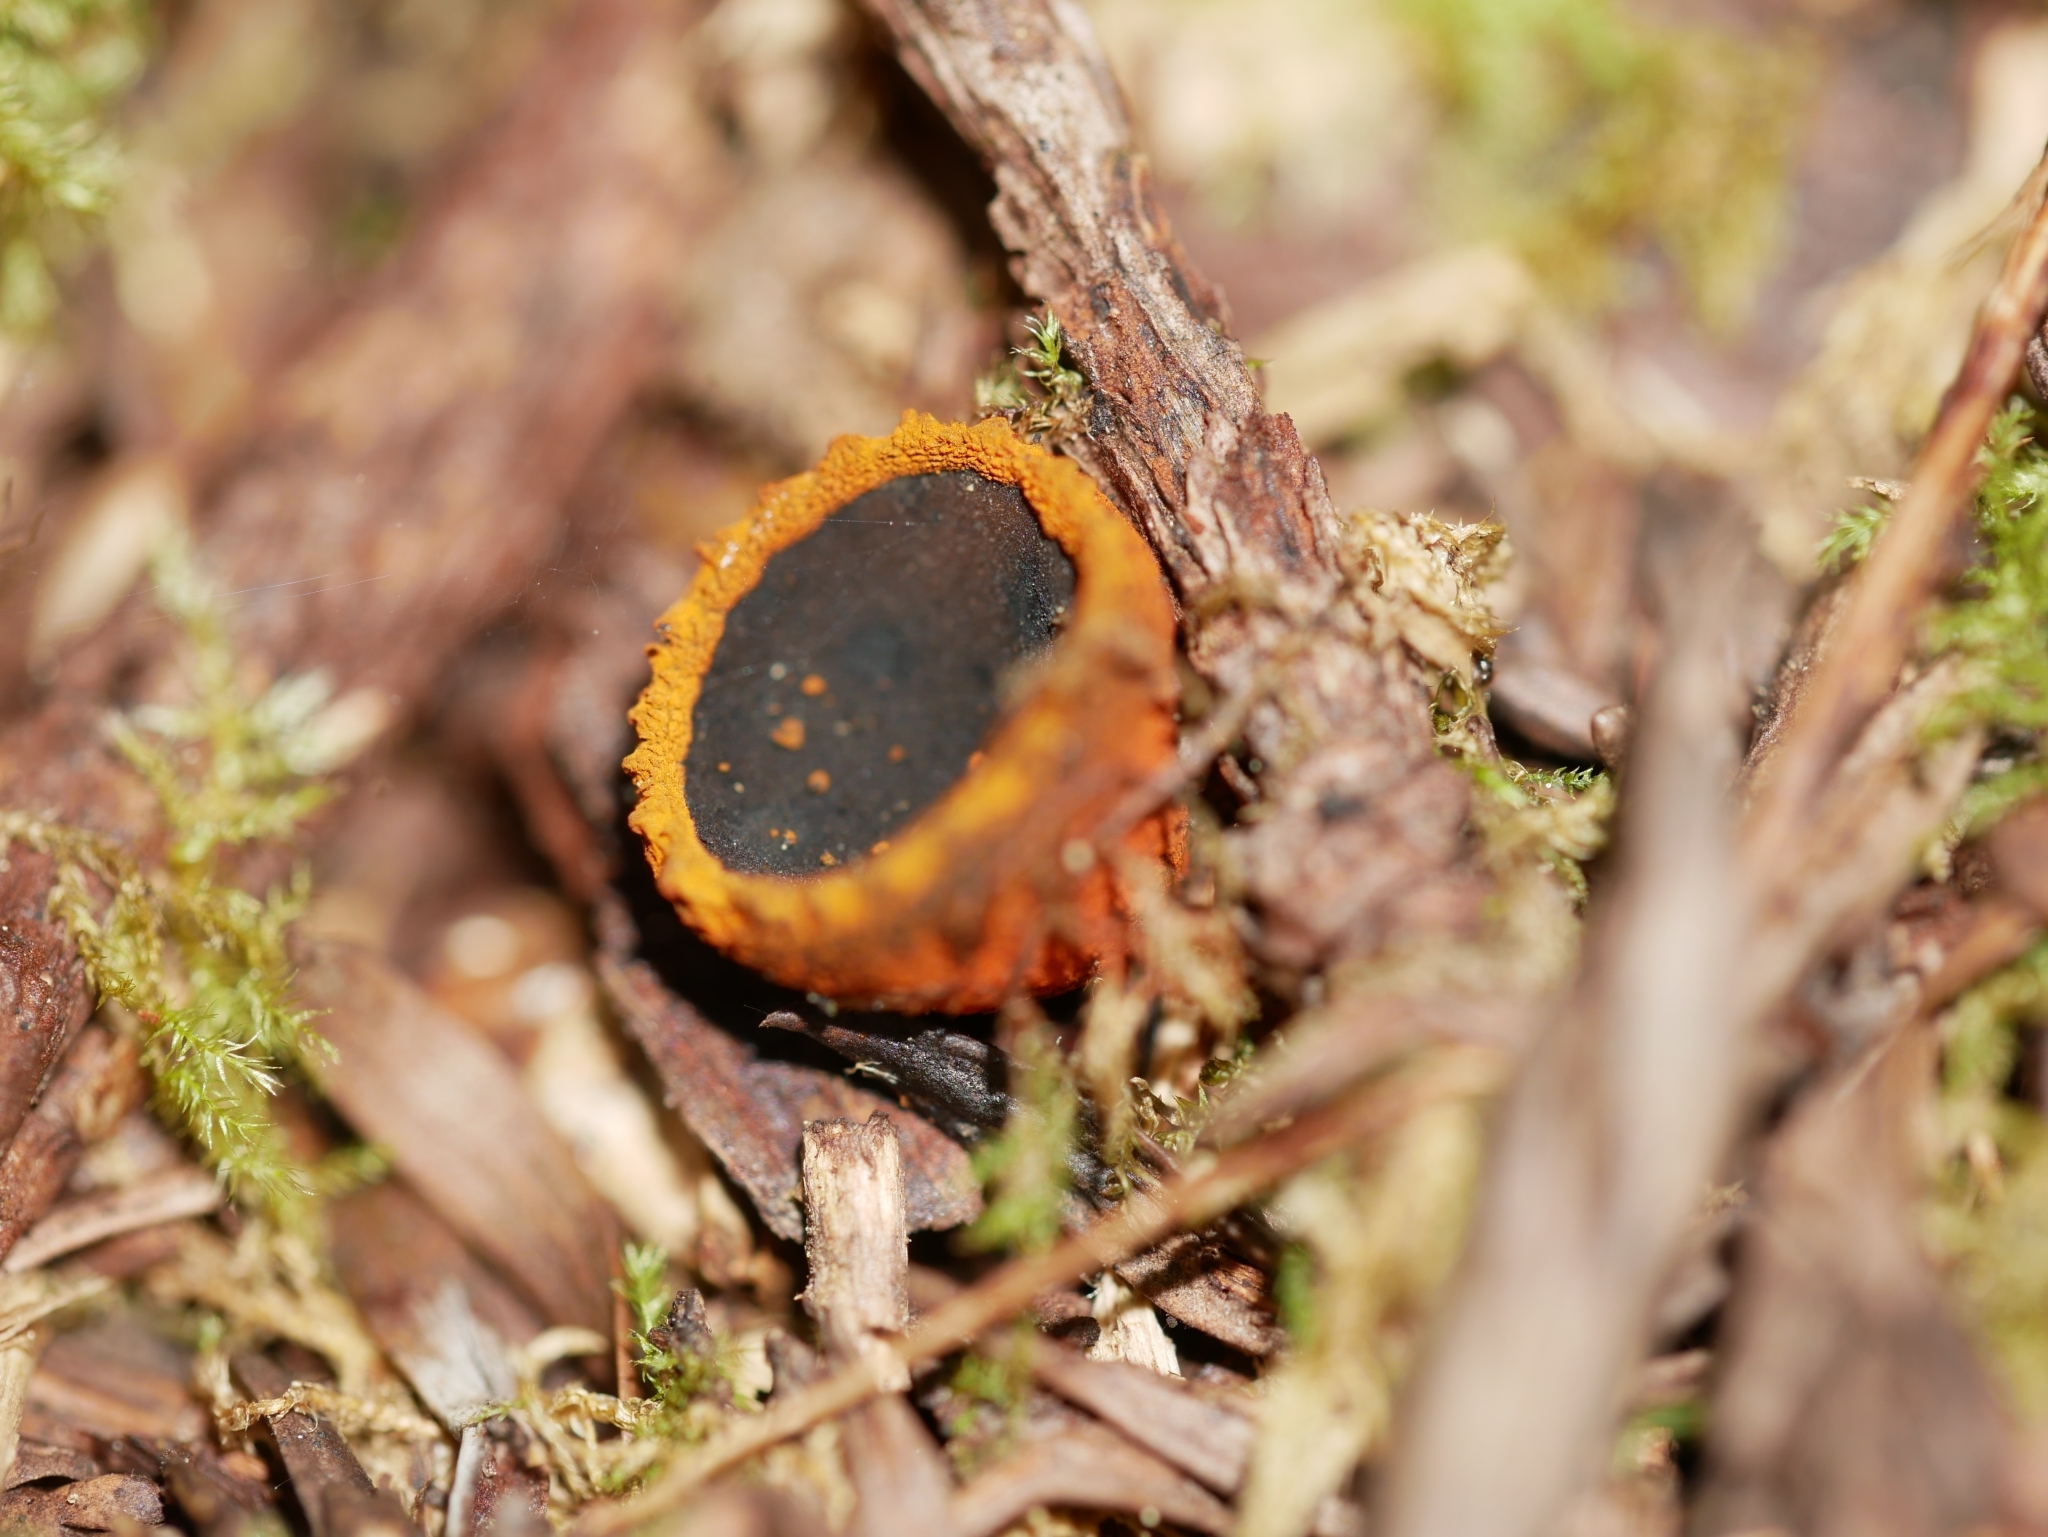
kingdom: Fungi
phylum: Ascomycota
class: Pezizomycetes
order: Pezizales
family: Sarcosomataceae
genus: Plectania
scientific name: Plectania melastoma
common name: Corona cup
